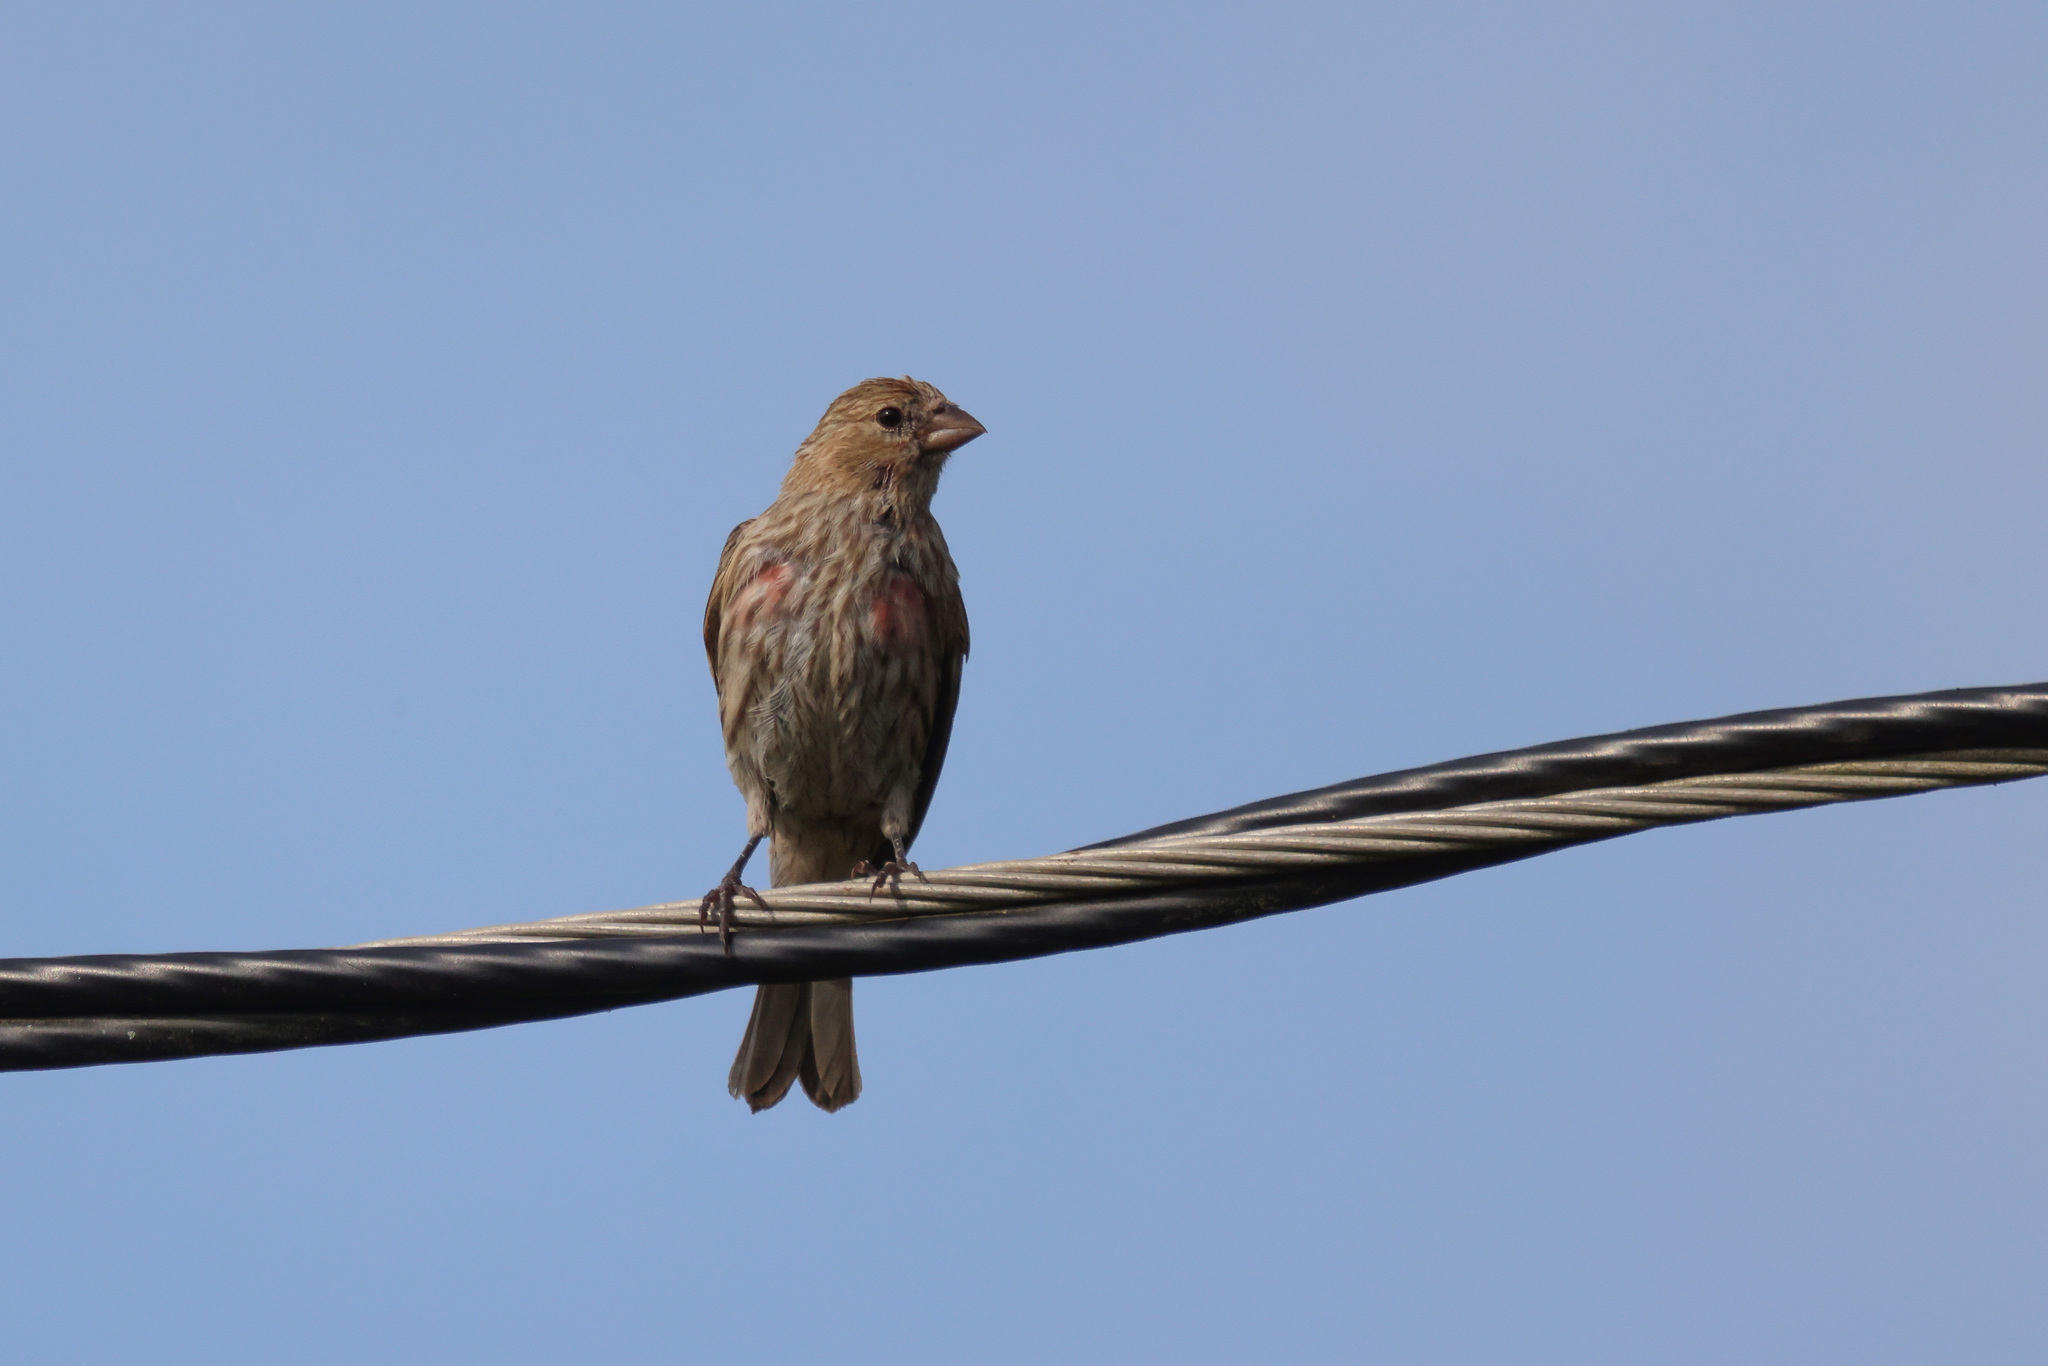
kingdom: Animalia
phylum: Chordata
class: Aves
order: Passeriformes
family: Fringillidae
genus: Haemorhous
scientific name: Haemorhous mexicanus
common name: House finch
